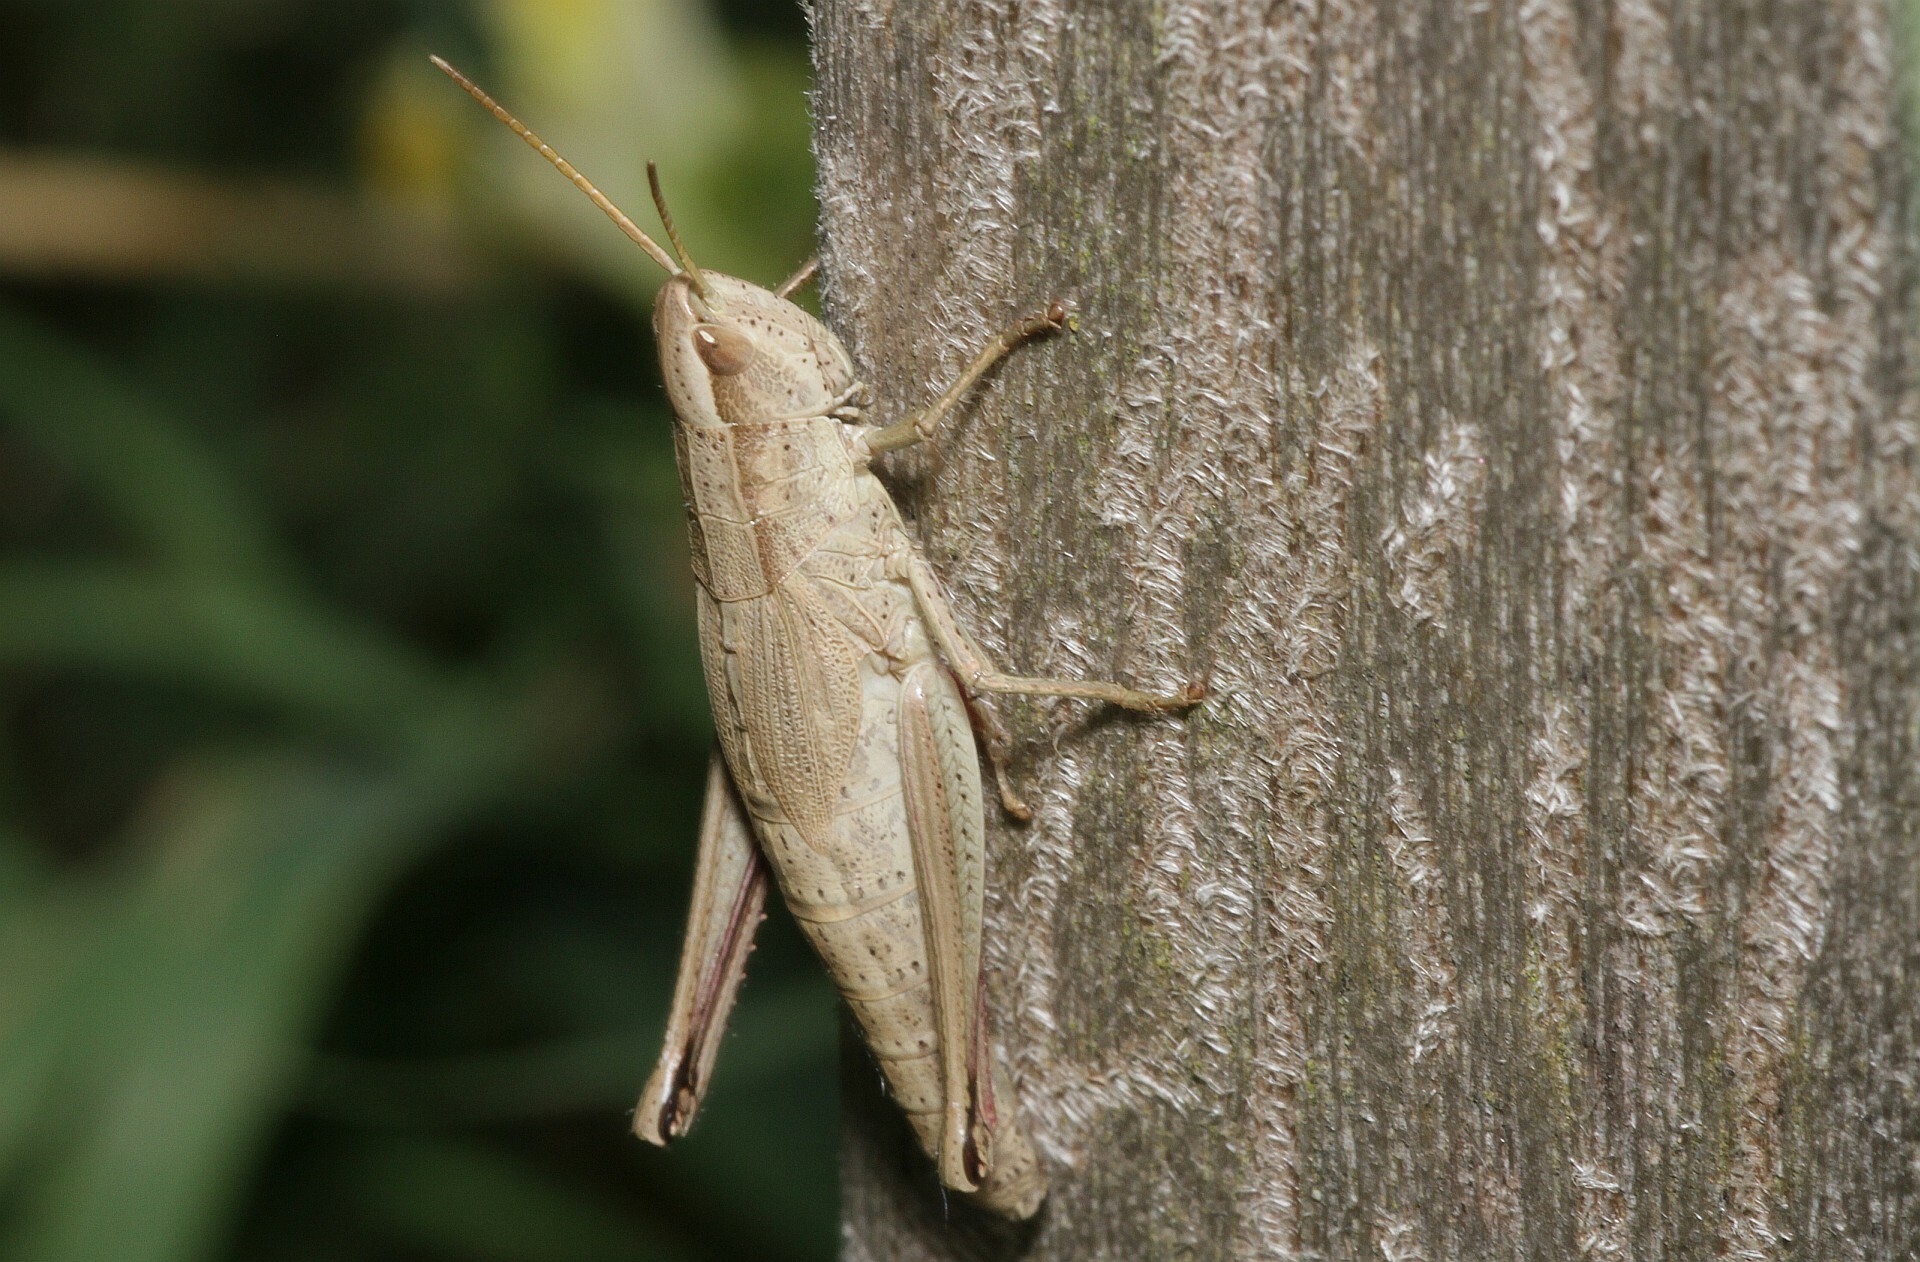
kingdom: Animalia
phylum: Arthropoda
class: Insecta
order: Orthoptera
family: Acrididae
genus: Chrysochraon
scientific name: Chrysochraon dispar
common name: Large gold grasshopper
